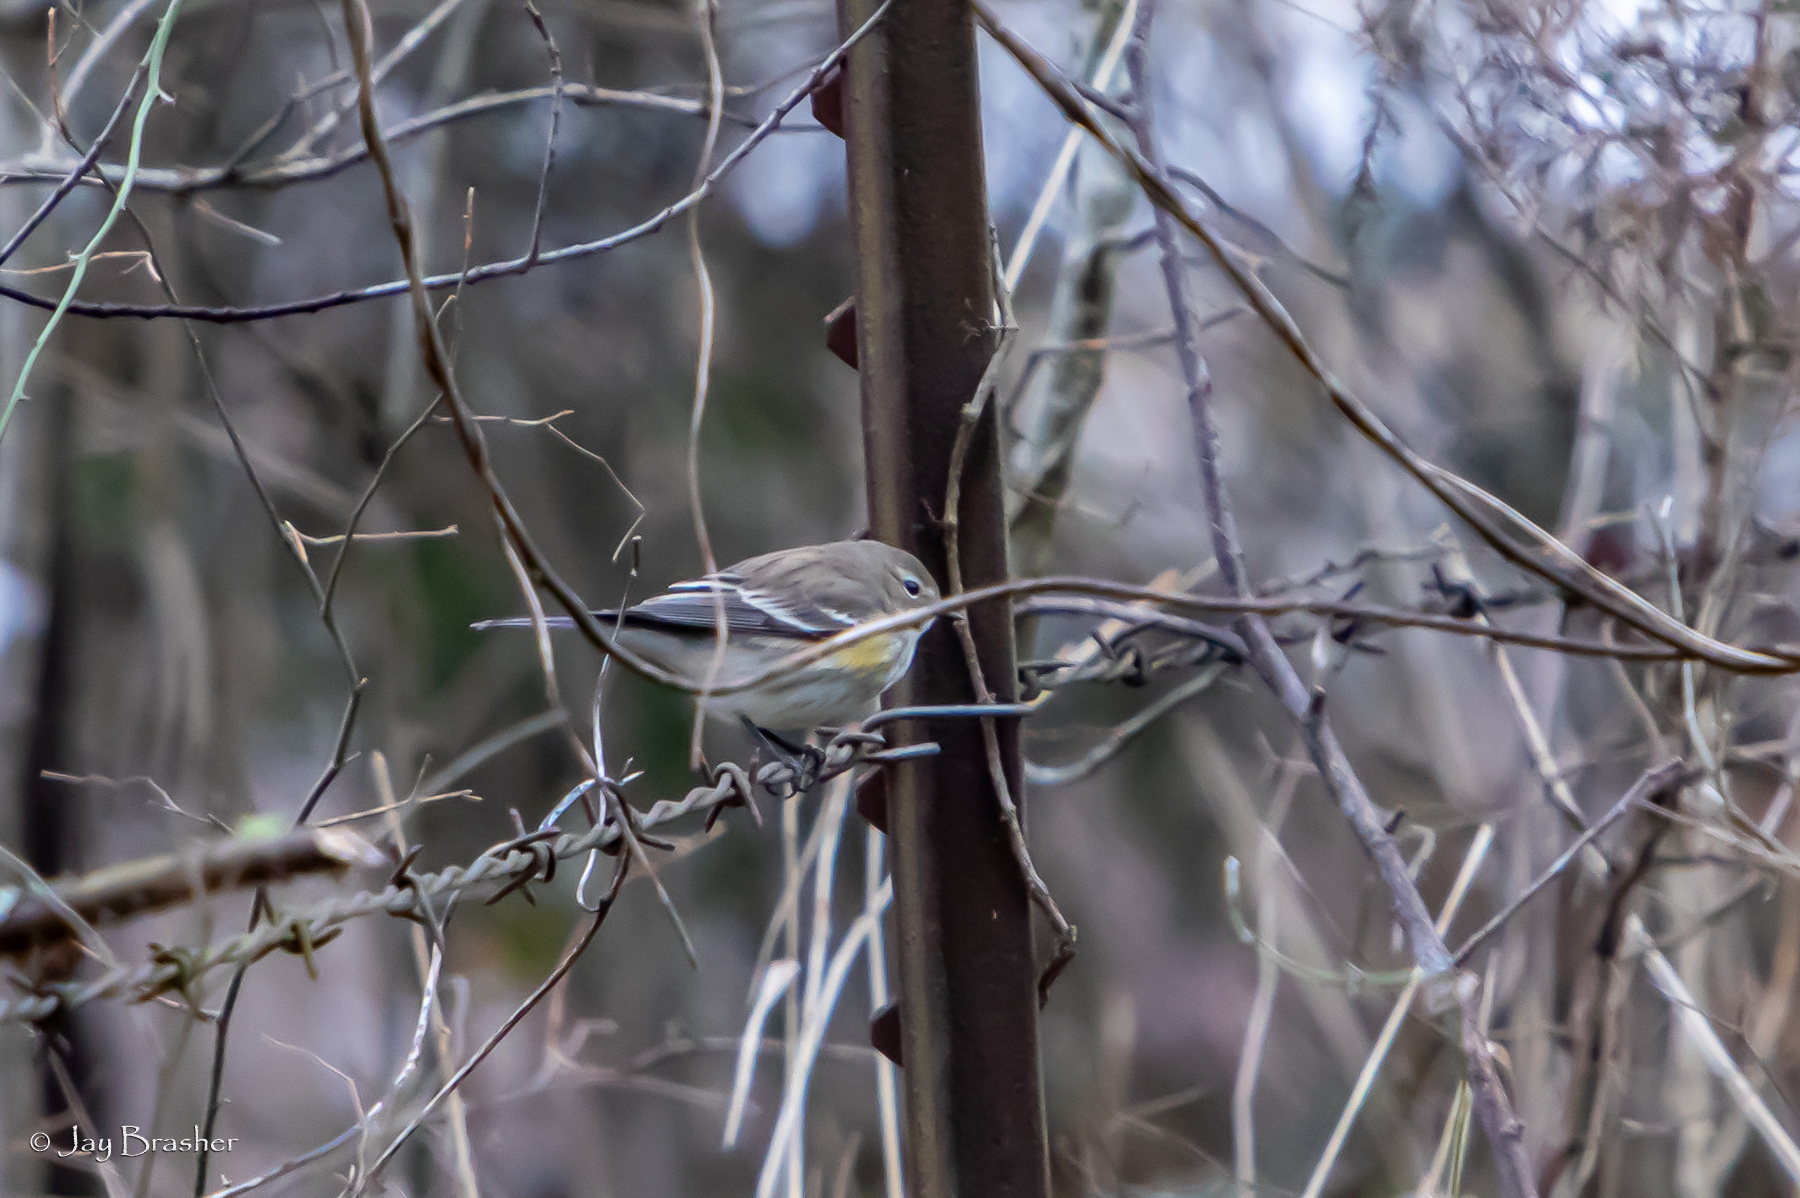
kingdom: Animalia
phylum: Chordata
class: Aves
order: Passeriformes
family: Parulidae
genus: Setophaga
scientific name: Setophaga coronata
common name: Myrtle warbler
